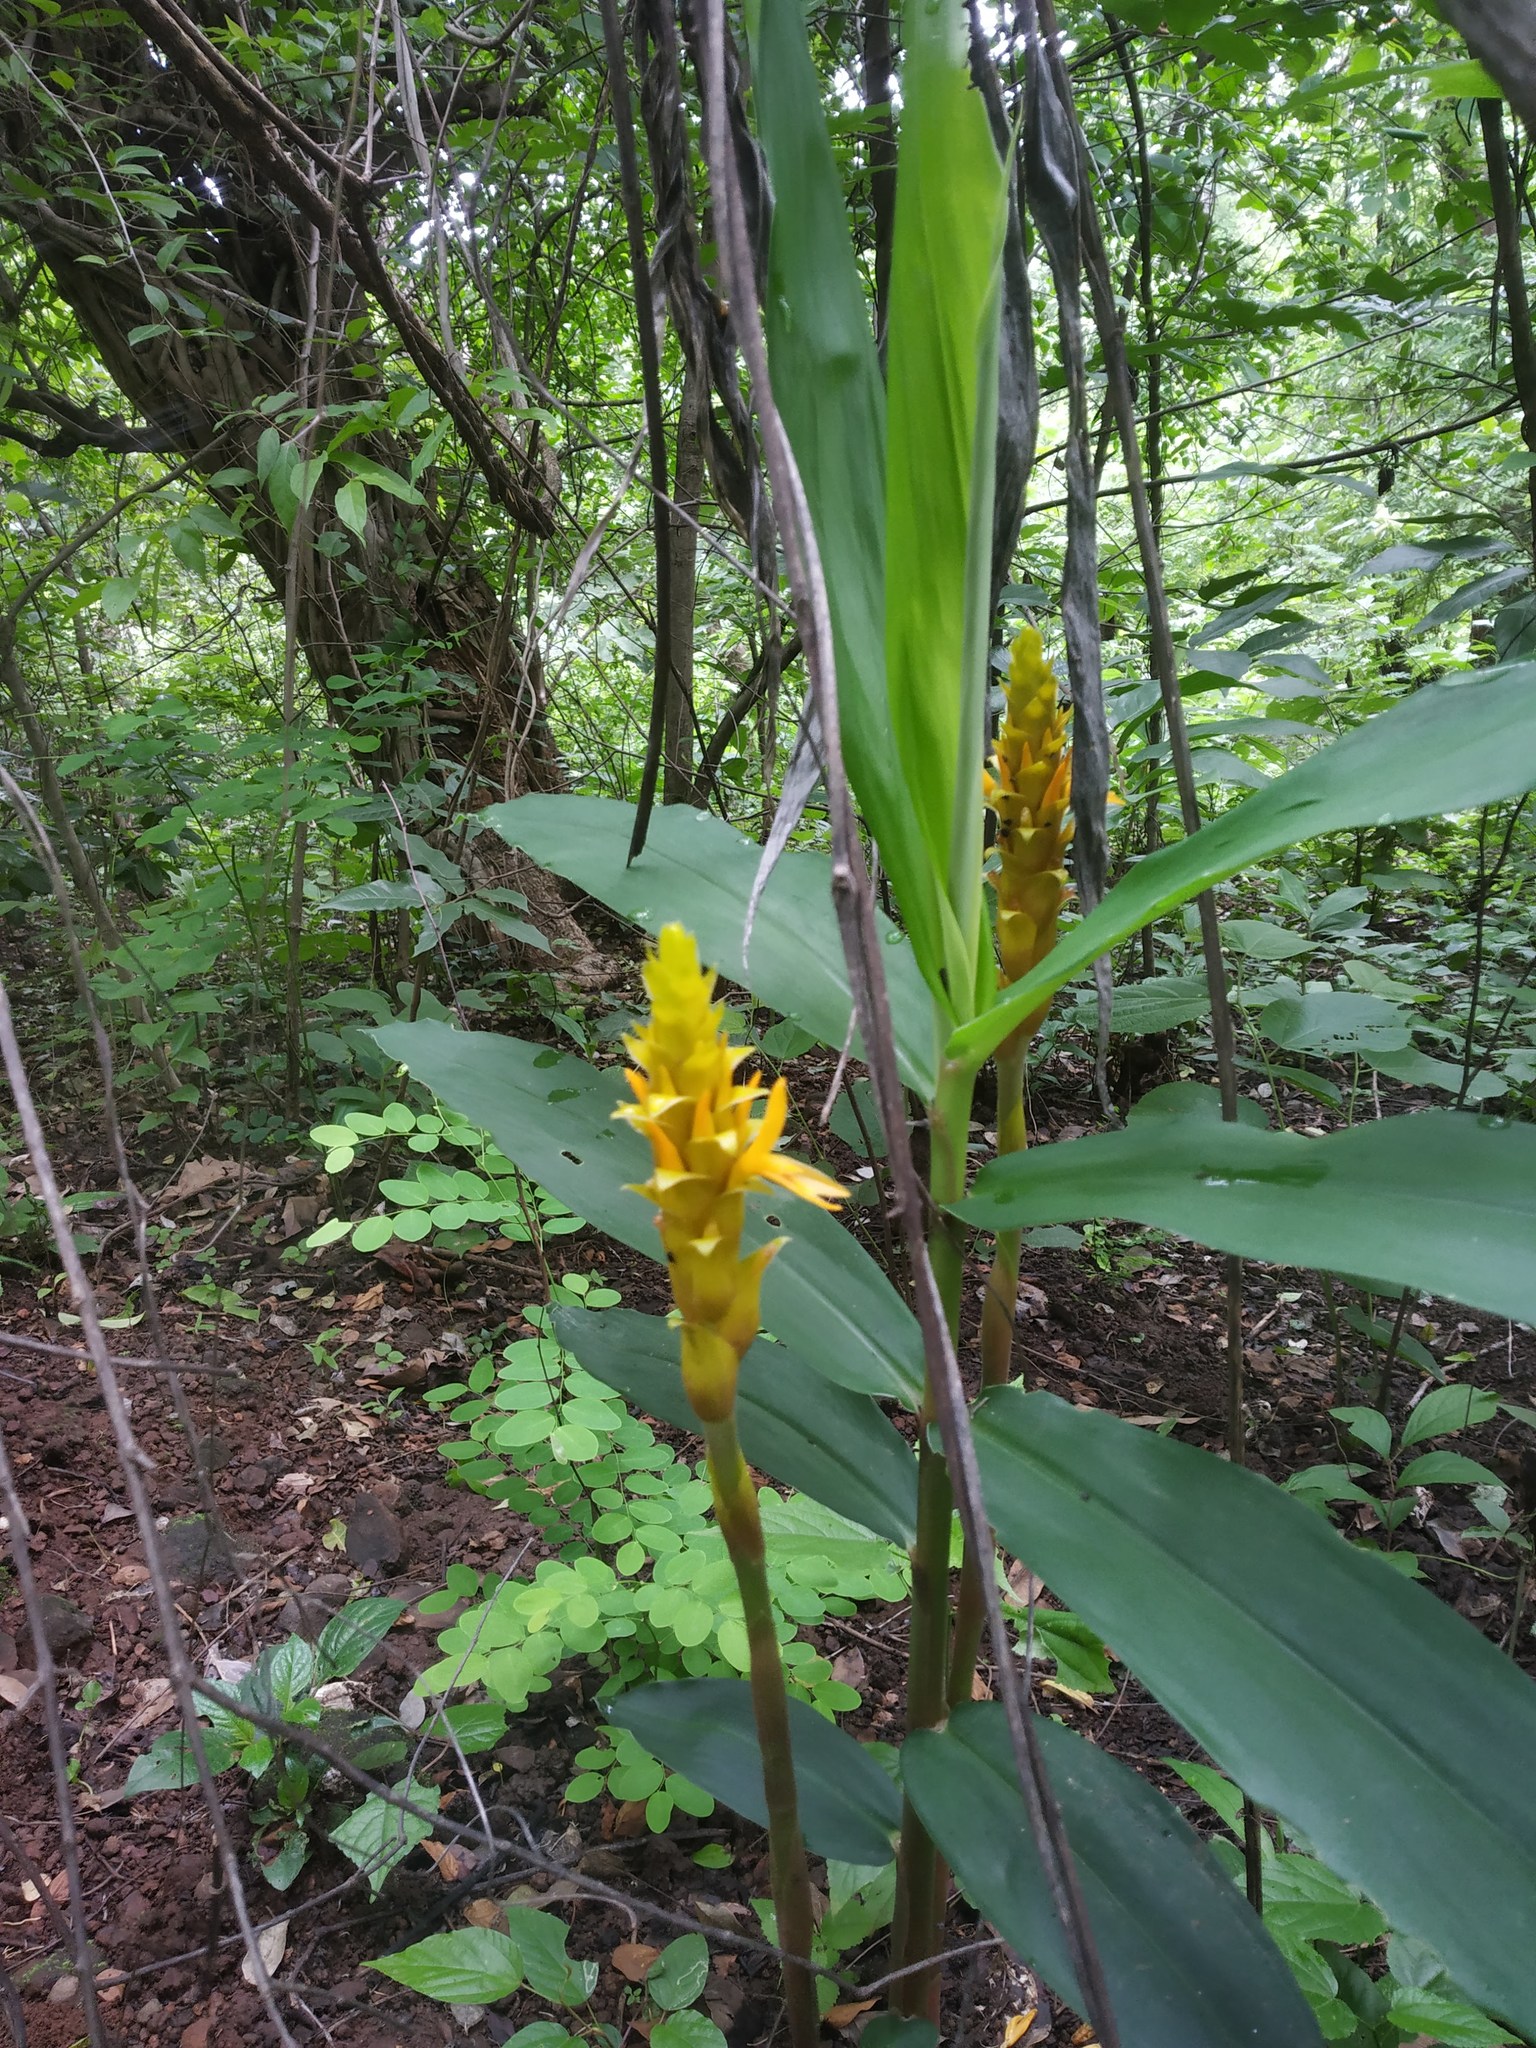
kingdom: Plantae
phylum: Tracheophyta
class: Liliopsida
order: Zingiberales
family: Zingiberaceae
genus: Zingiber
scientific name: Zingiber neesanum
